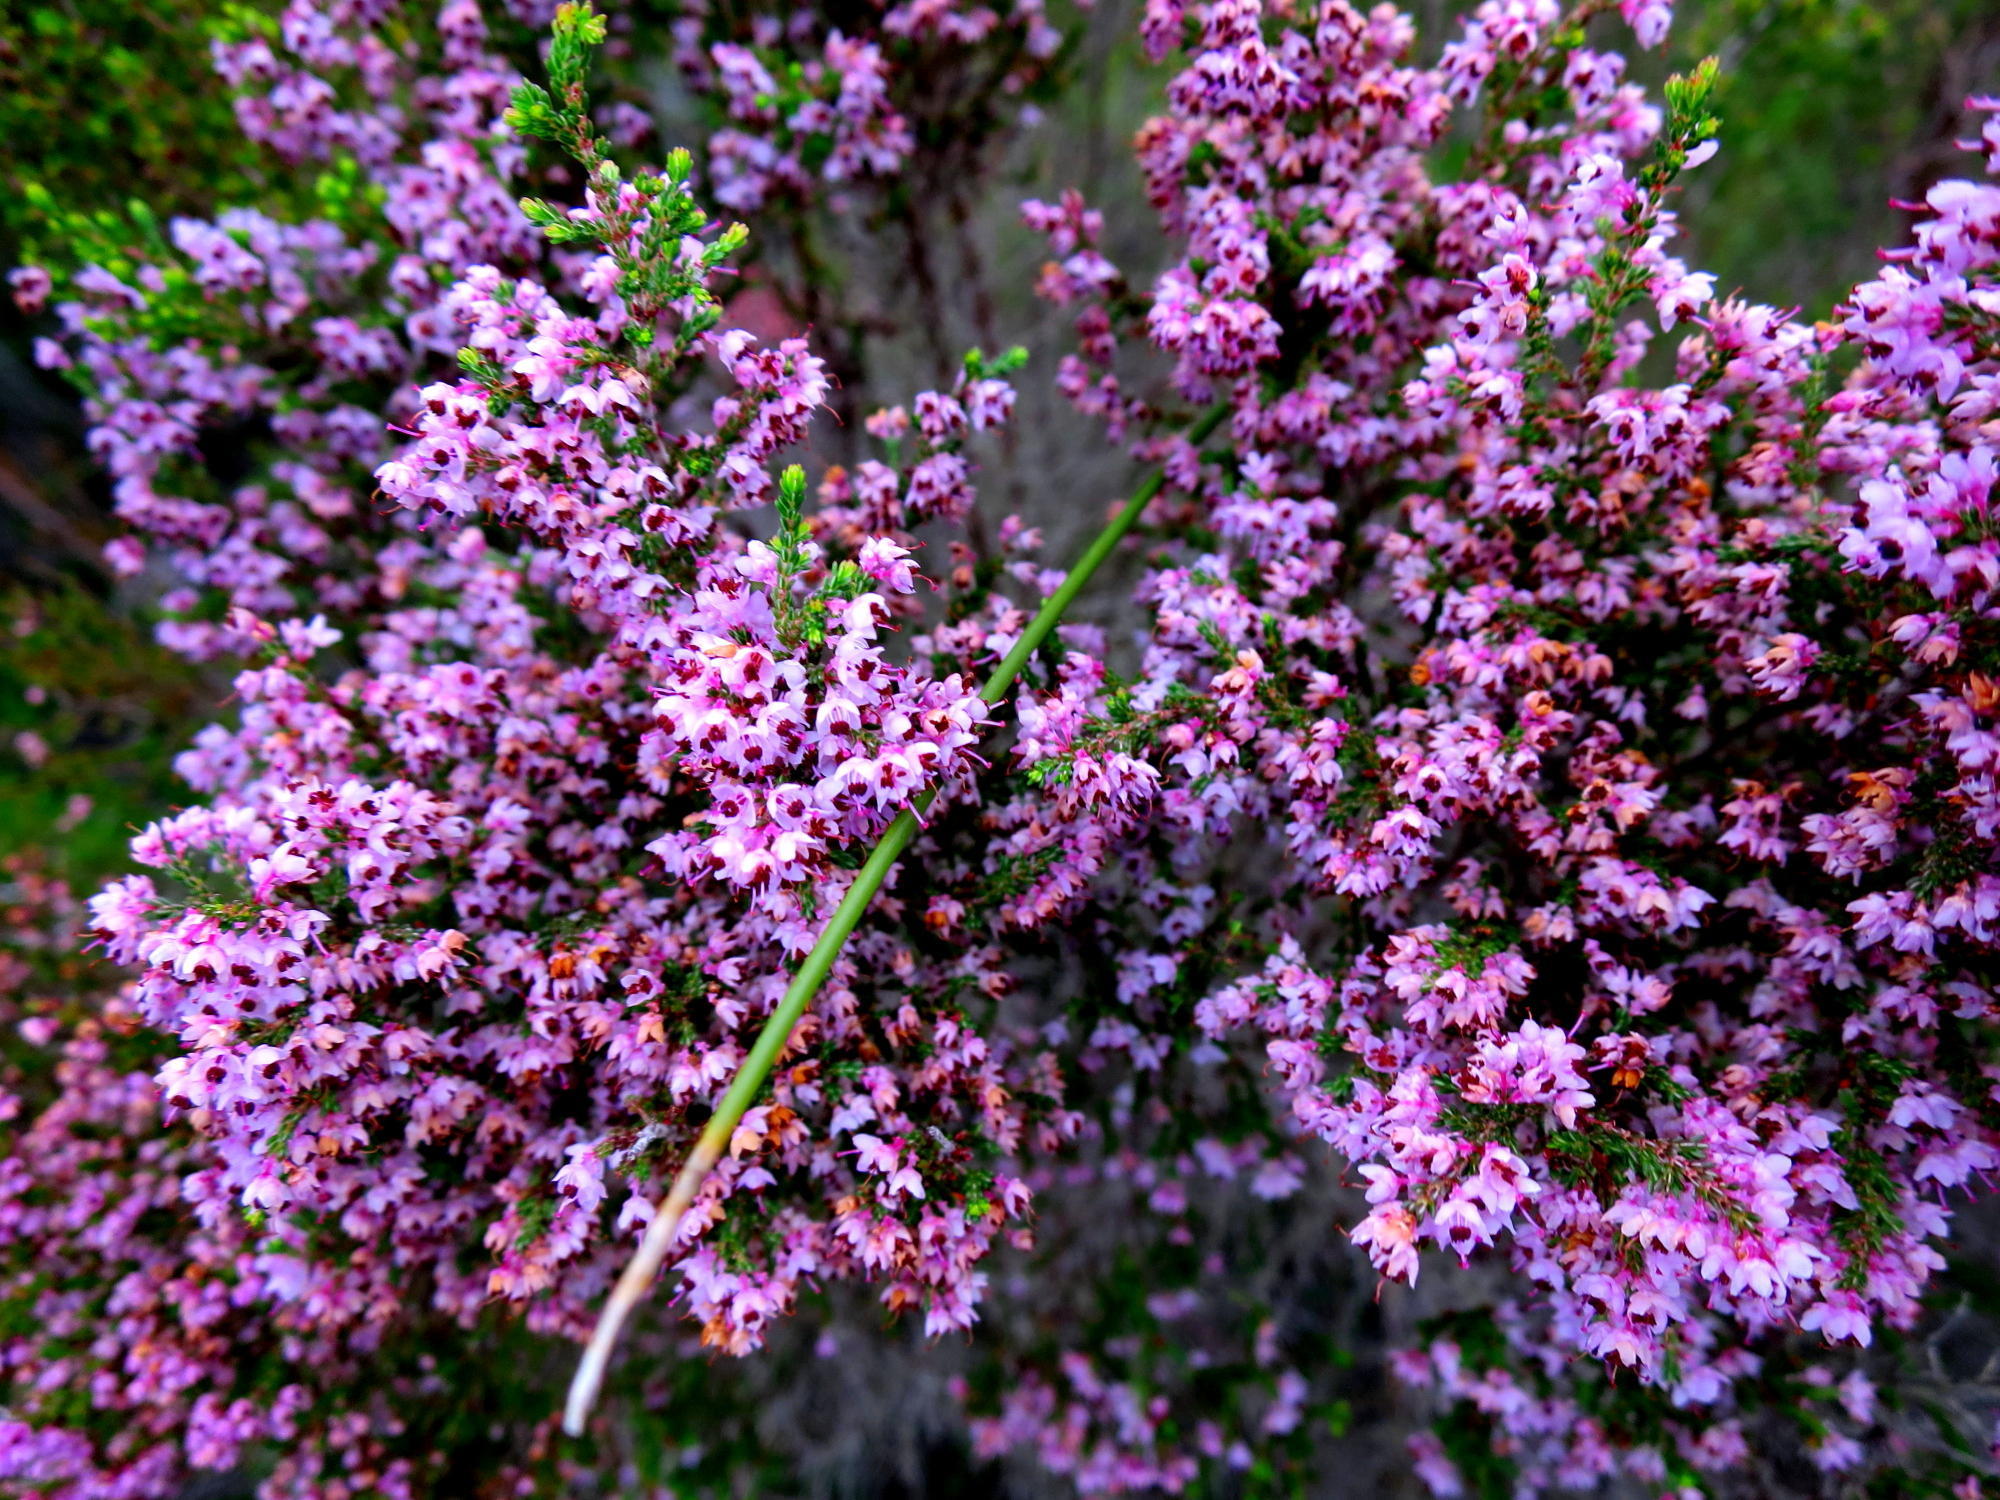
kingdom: Plantae
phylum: Tracheophyta
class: Magnoliopsida
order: Ericales
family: Ericaceae
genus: Erica
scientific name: Erica sparsa
